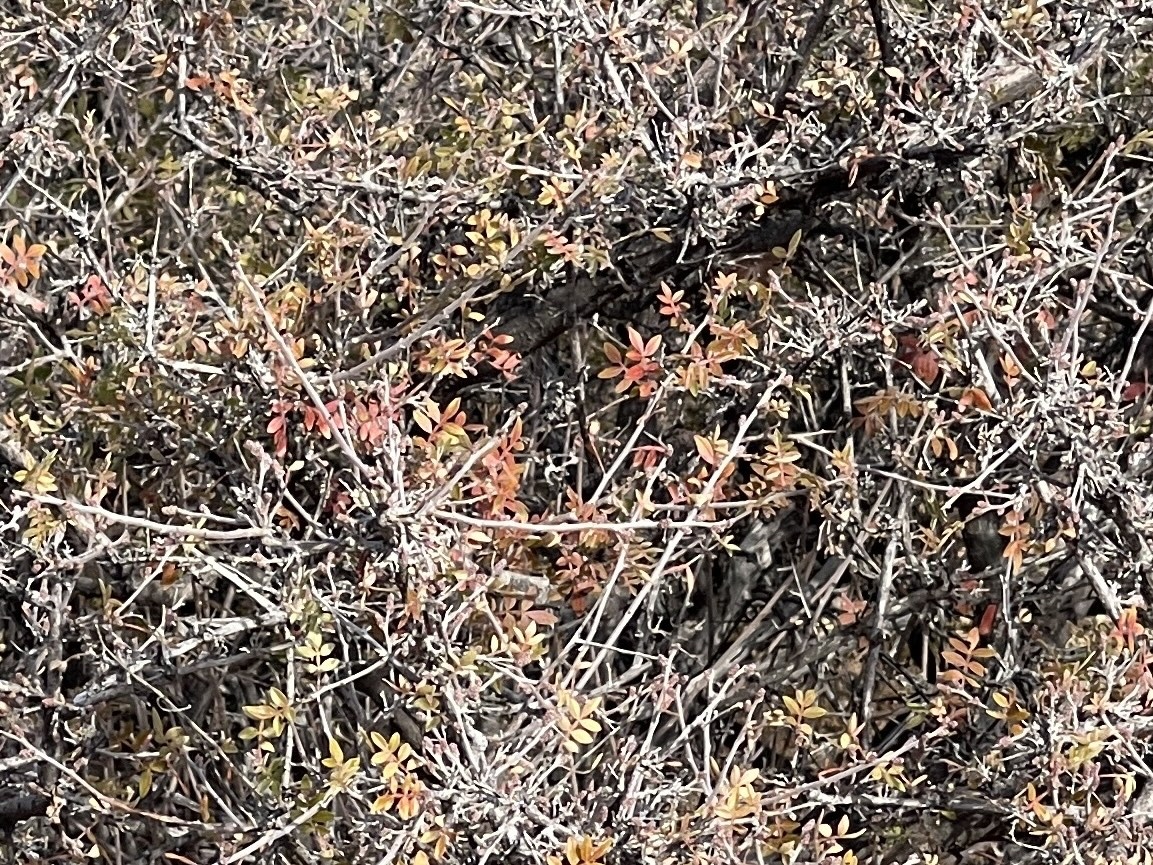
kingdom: Plantae
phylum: Tracheophyta
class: Magnoliopsida
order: Sapindales
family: Anacardiaceae
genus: Rhus
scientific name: Rhus microphylla
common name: Desert sumac
